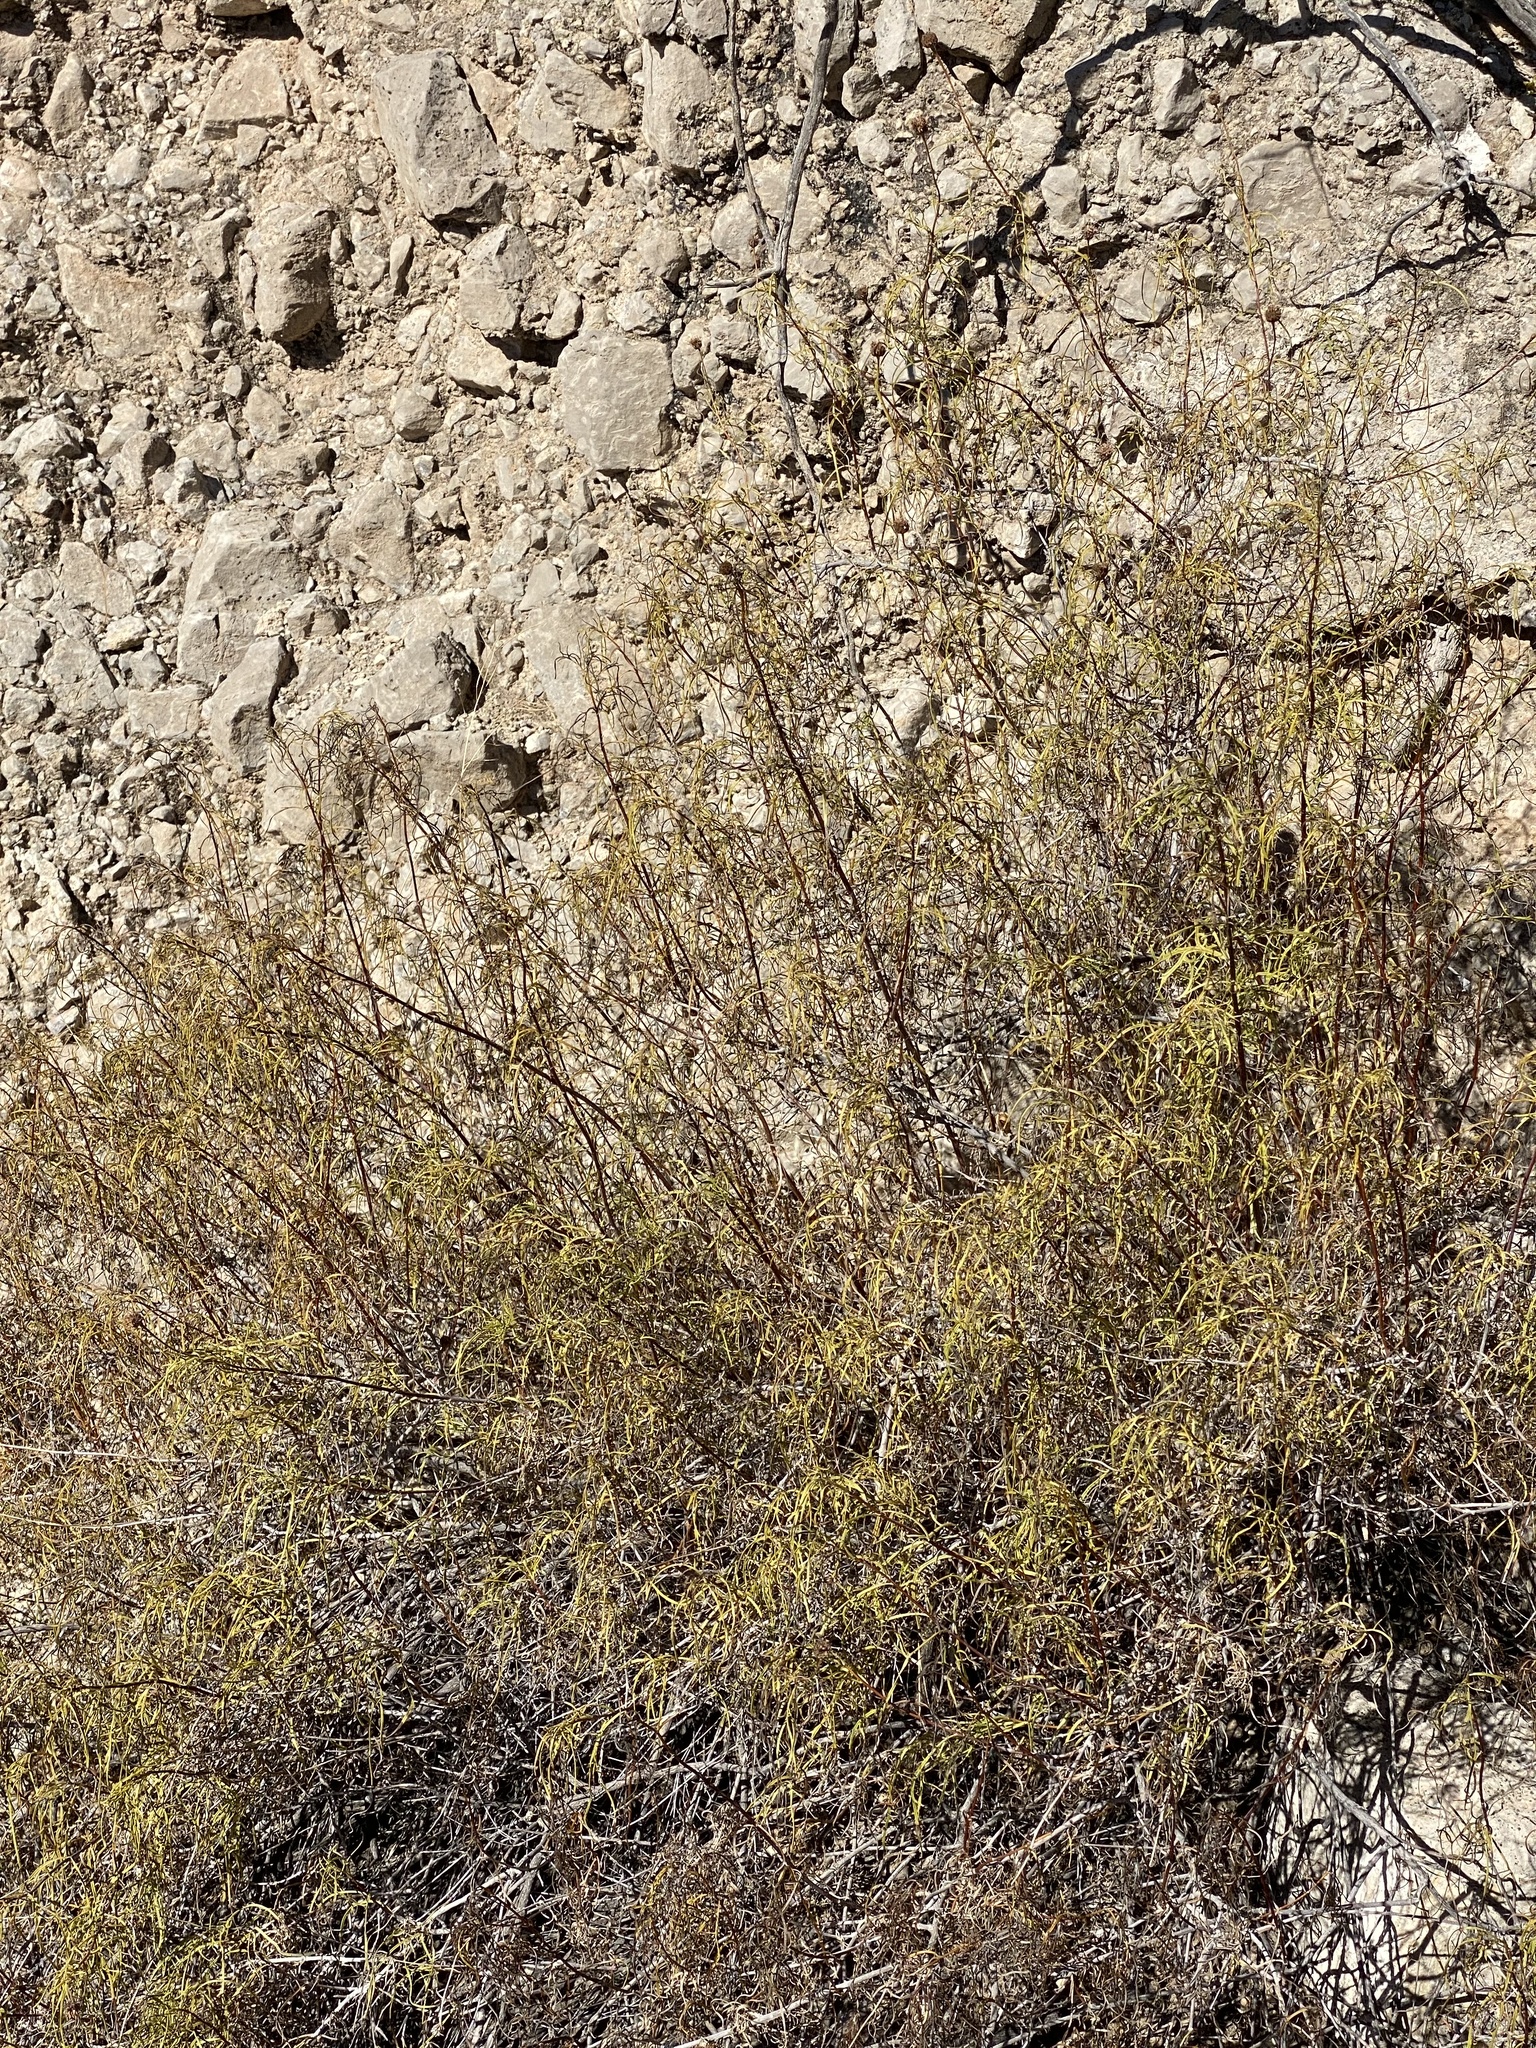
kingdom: Plantae
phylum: Tracheophyta
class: Magnoliopsida
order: Asterales
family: Asteraceae
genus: Sidneya
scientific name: Sidneya tenuifolia
